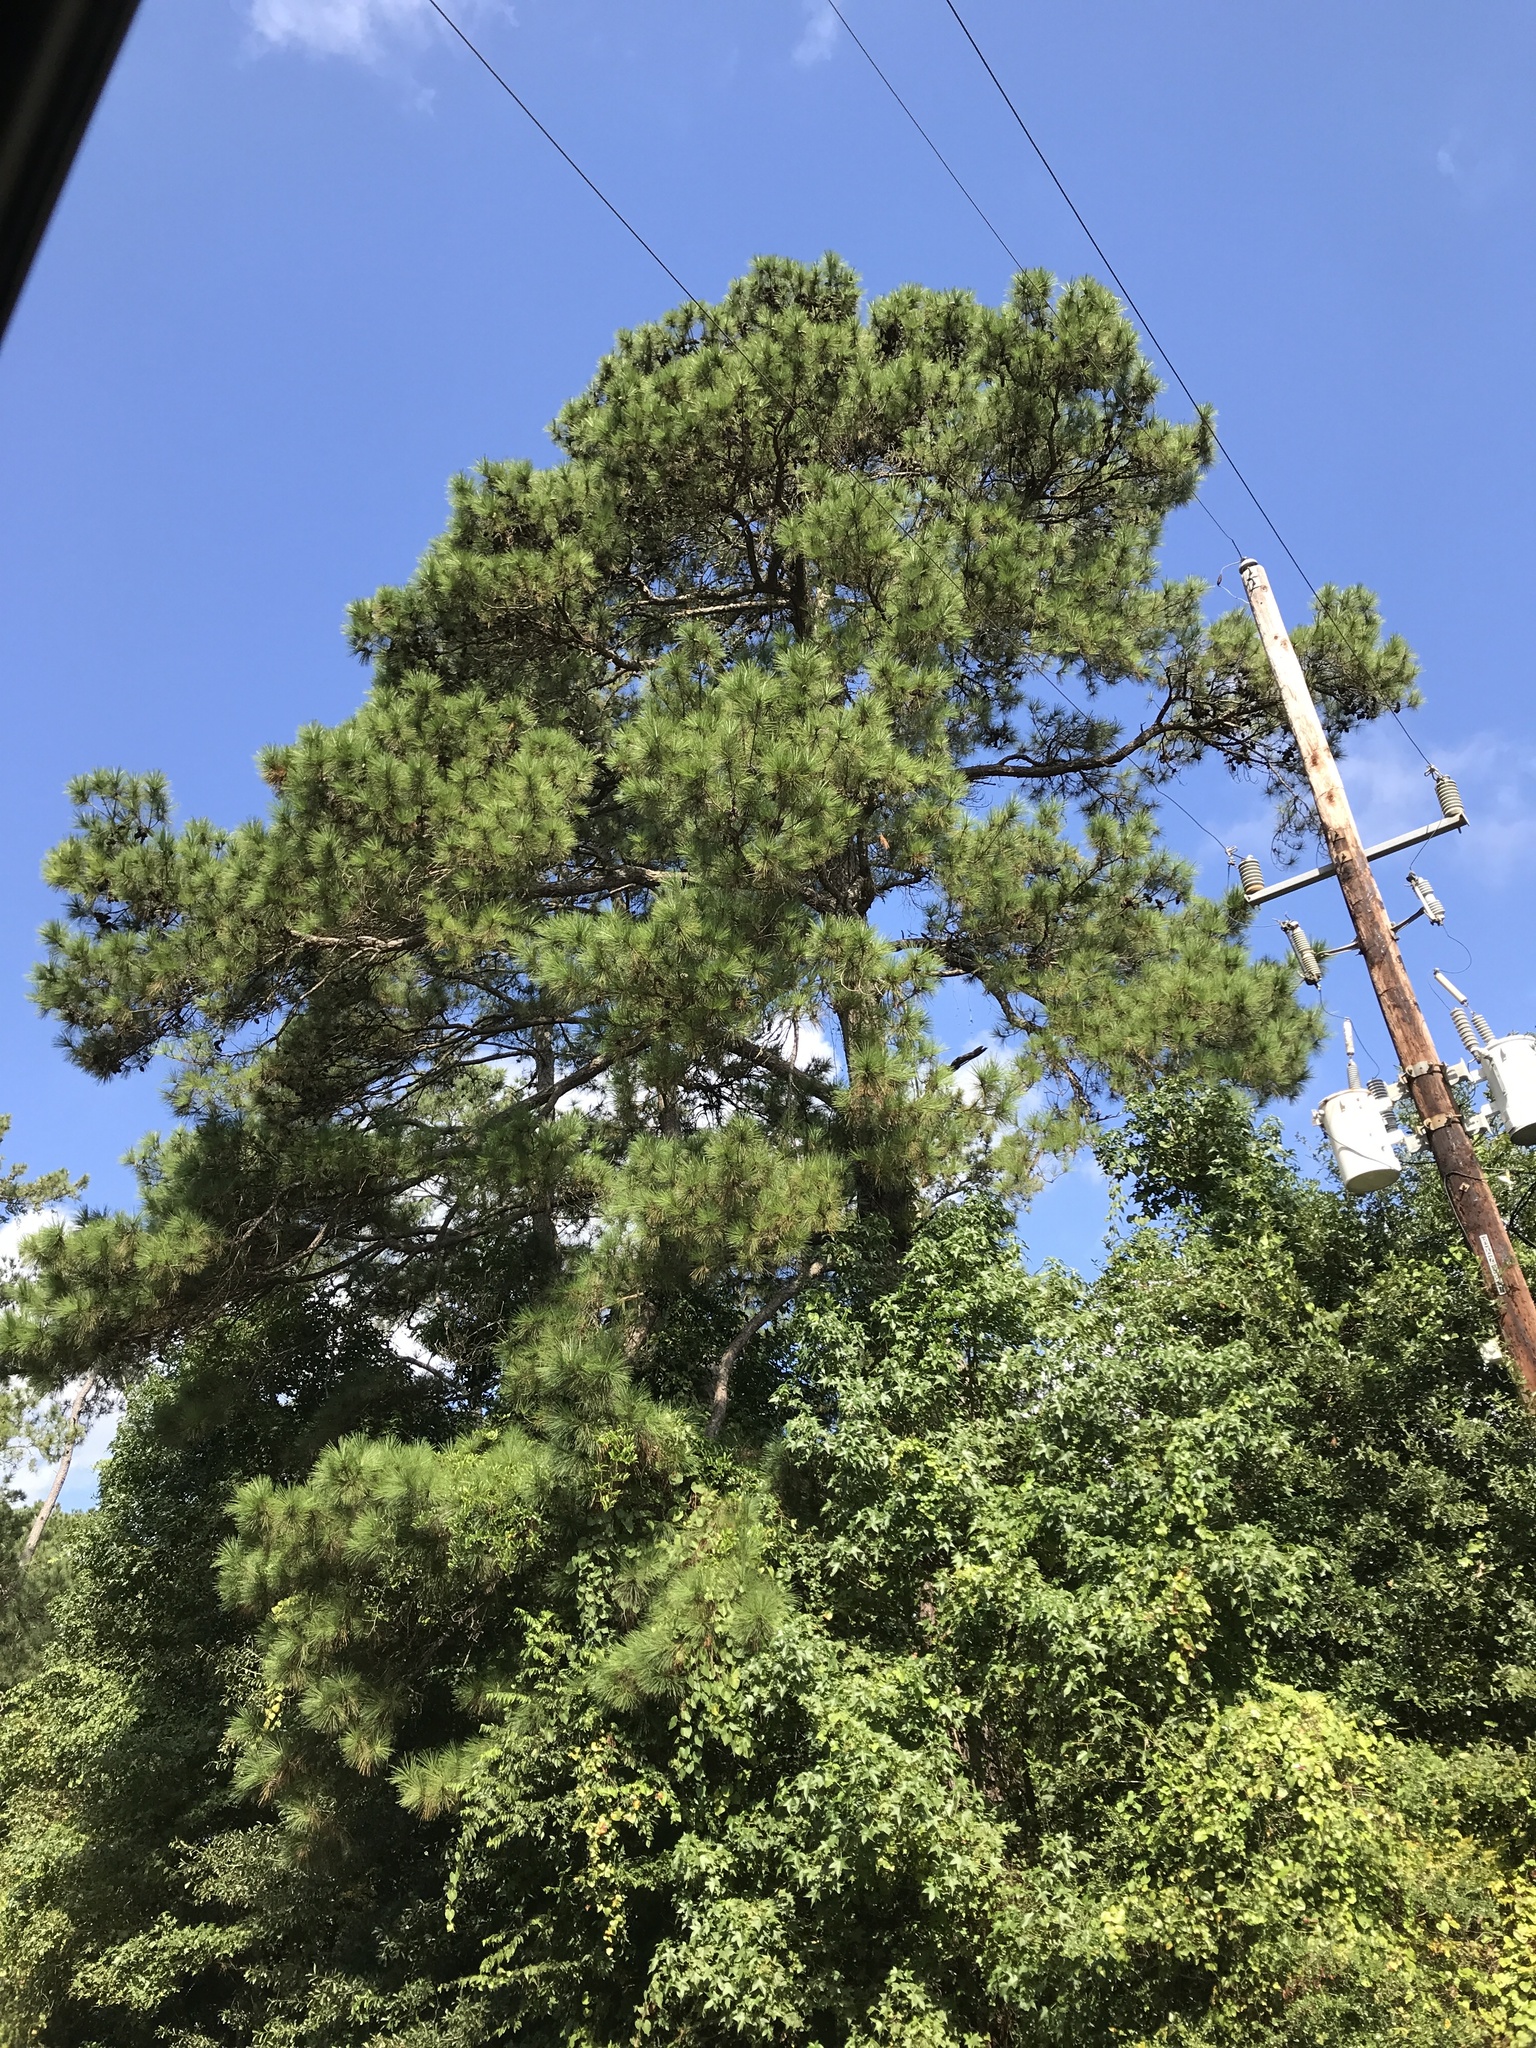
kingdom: Plantae
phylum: Tracheophyta
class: Pinopsida
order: Pinales
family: Pinaceae
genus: Pinus
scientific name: Pinus taeda
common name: Loblolly pine
